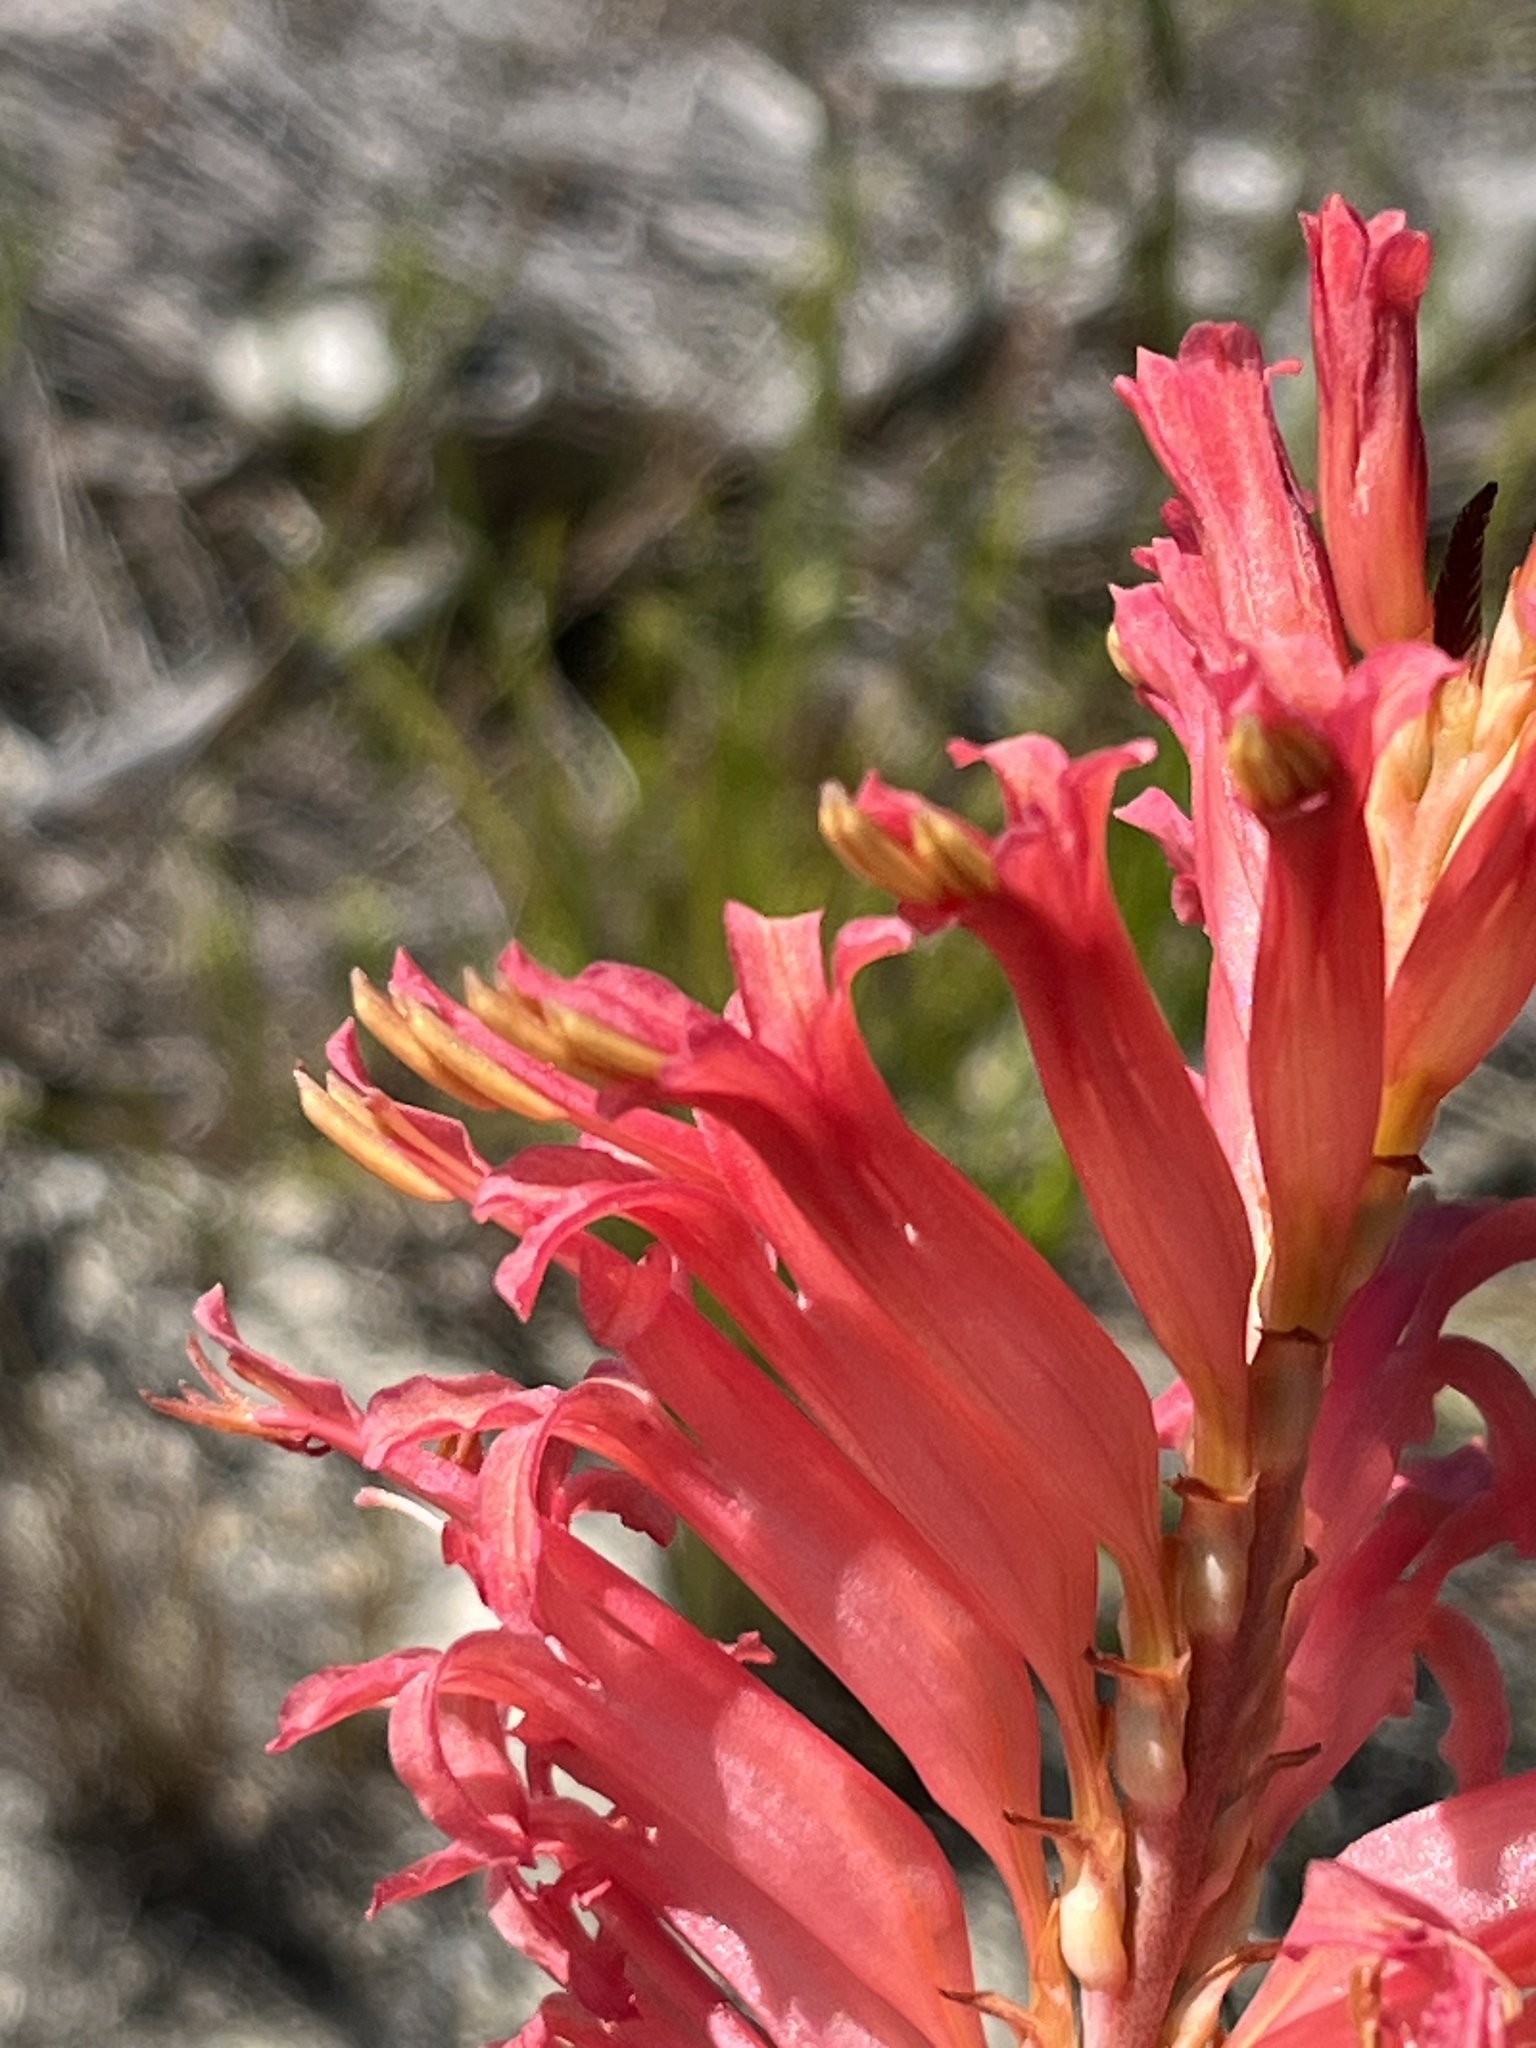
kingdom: Plantae
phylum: Tracheophyta
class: Liliopsida
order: Asparagales
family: Iridaceae
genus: Tritoniopsis
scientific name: Tritoniopsis antholyza
